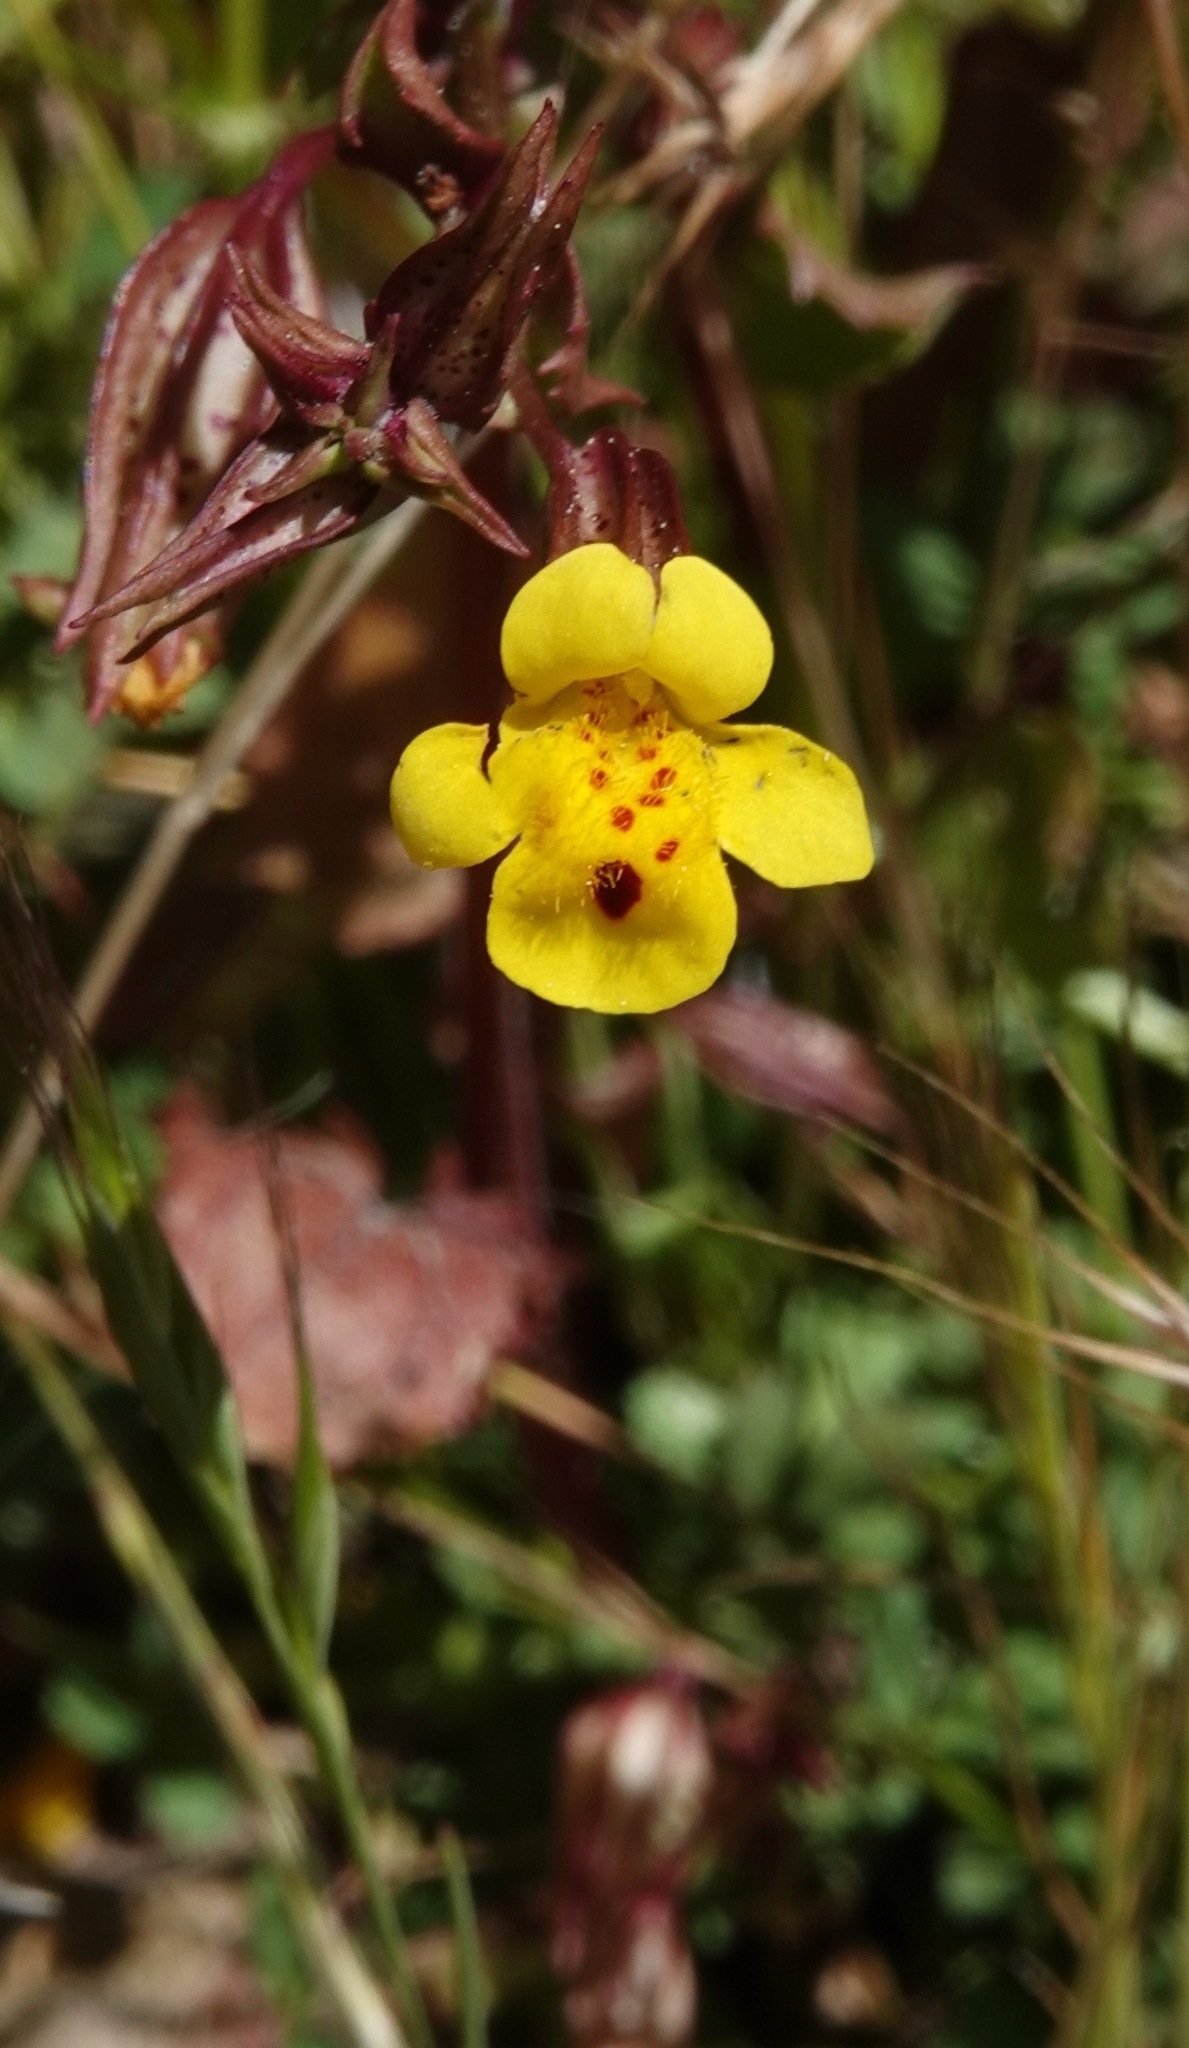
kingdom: Plantae
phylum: Tracheophyta
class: Magnoliopsida
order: Lamiales
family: Phrymaceae
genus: Erythranthe
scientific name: Erythranthe nasuta
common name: Sooke monkeyflower
